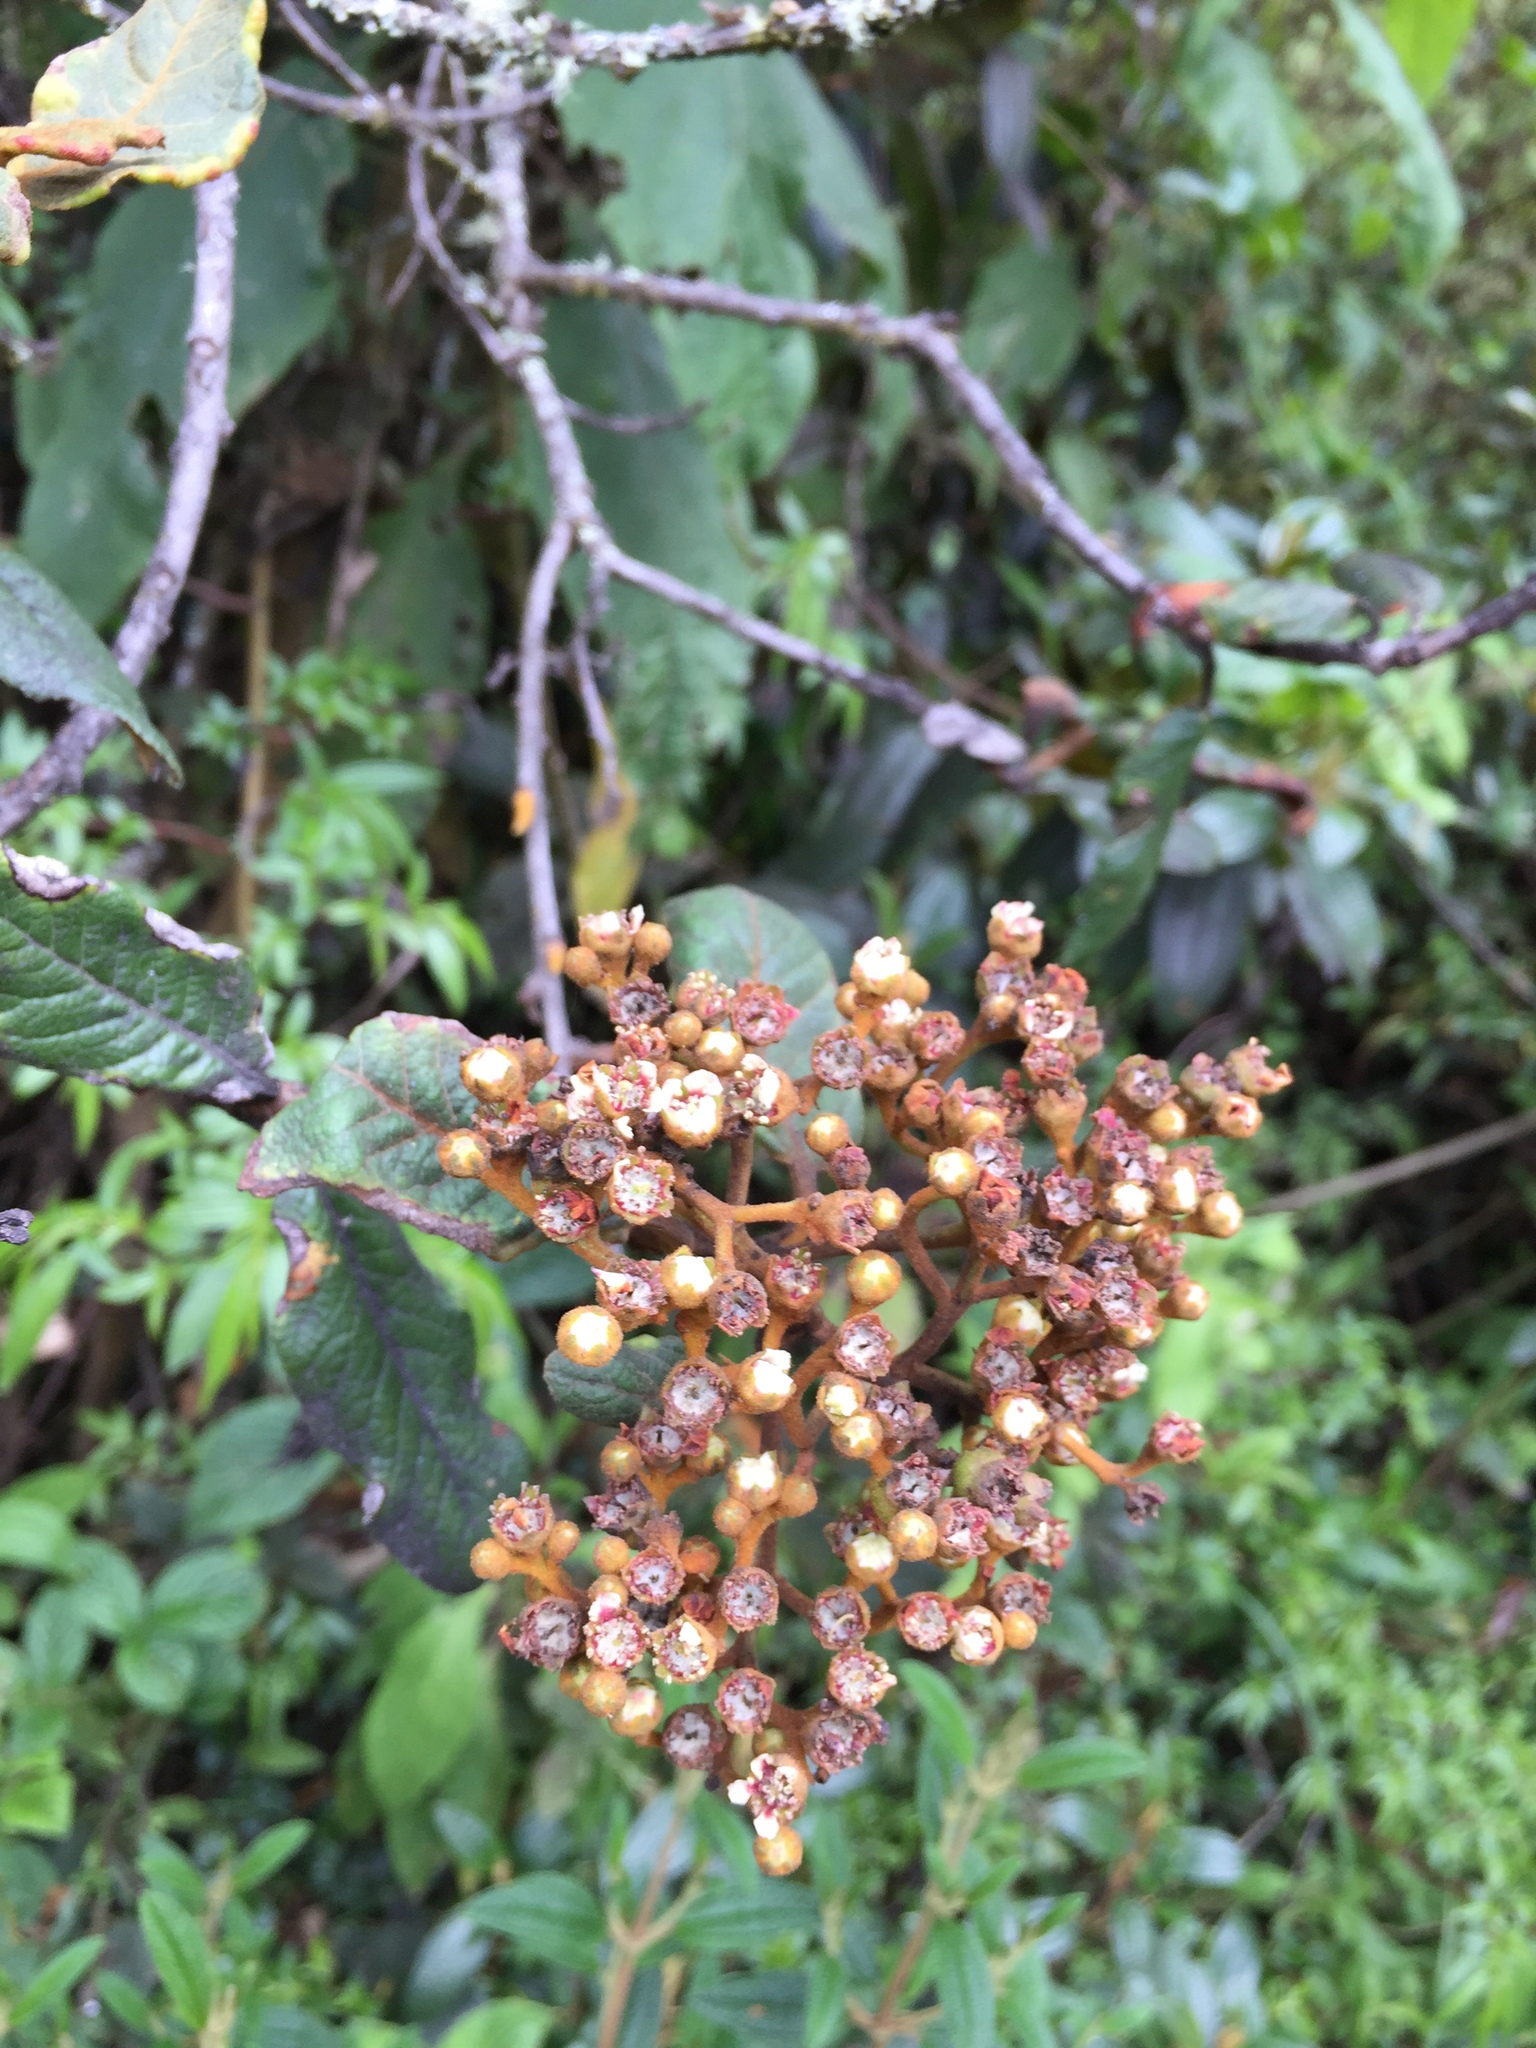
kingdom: Plantae
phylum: Tracheophyta
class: Magnoliopsida
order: Rosales
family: Rosaceae
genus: Hesperomeles
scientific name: Hesperomeles ferruginea
